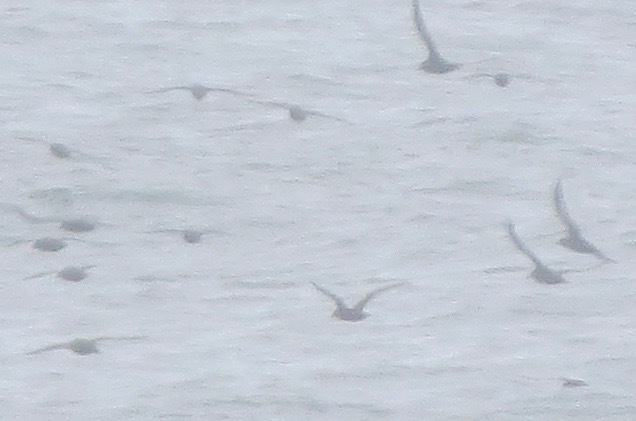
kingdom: Animalia
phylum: Chordata
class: Aves
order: Procellariiformes
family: Procellariidae
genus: Puffinus
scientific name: Puffinus griseus
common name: Sooty shearwater
